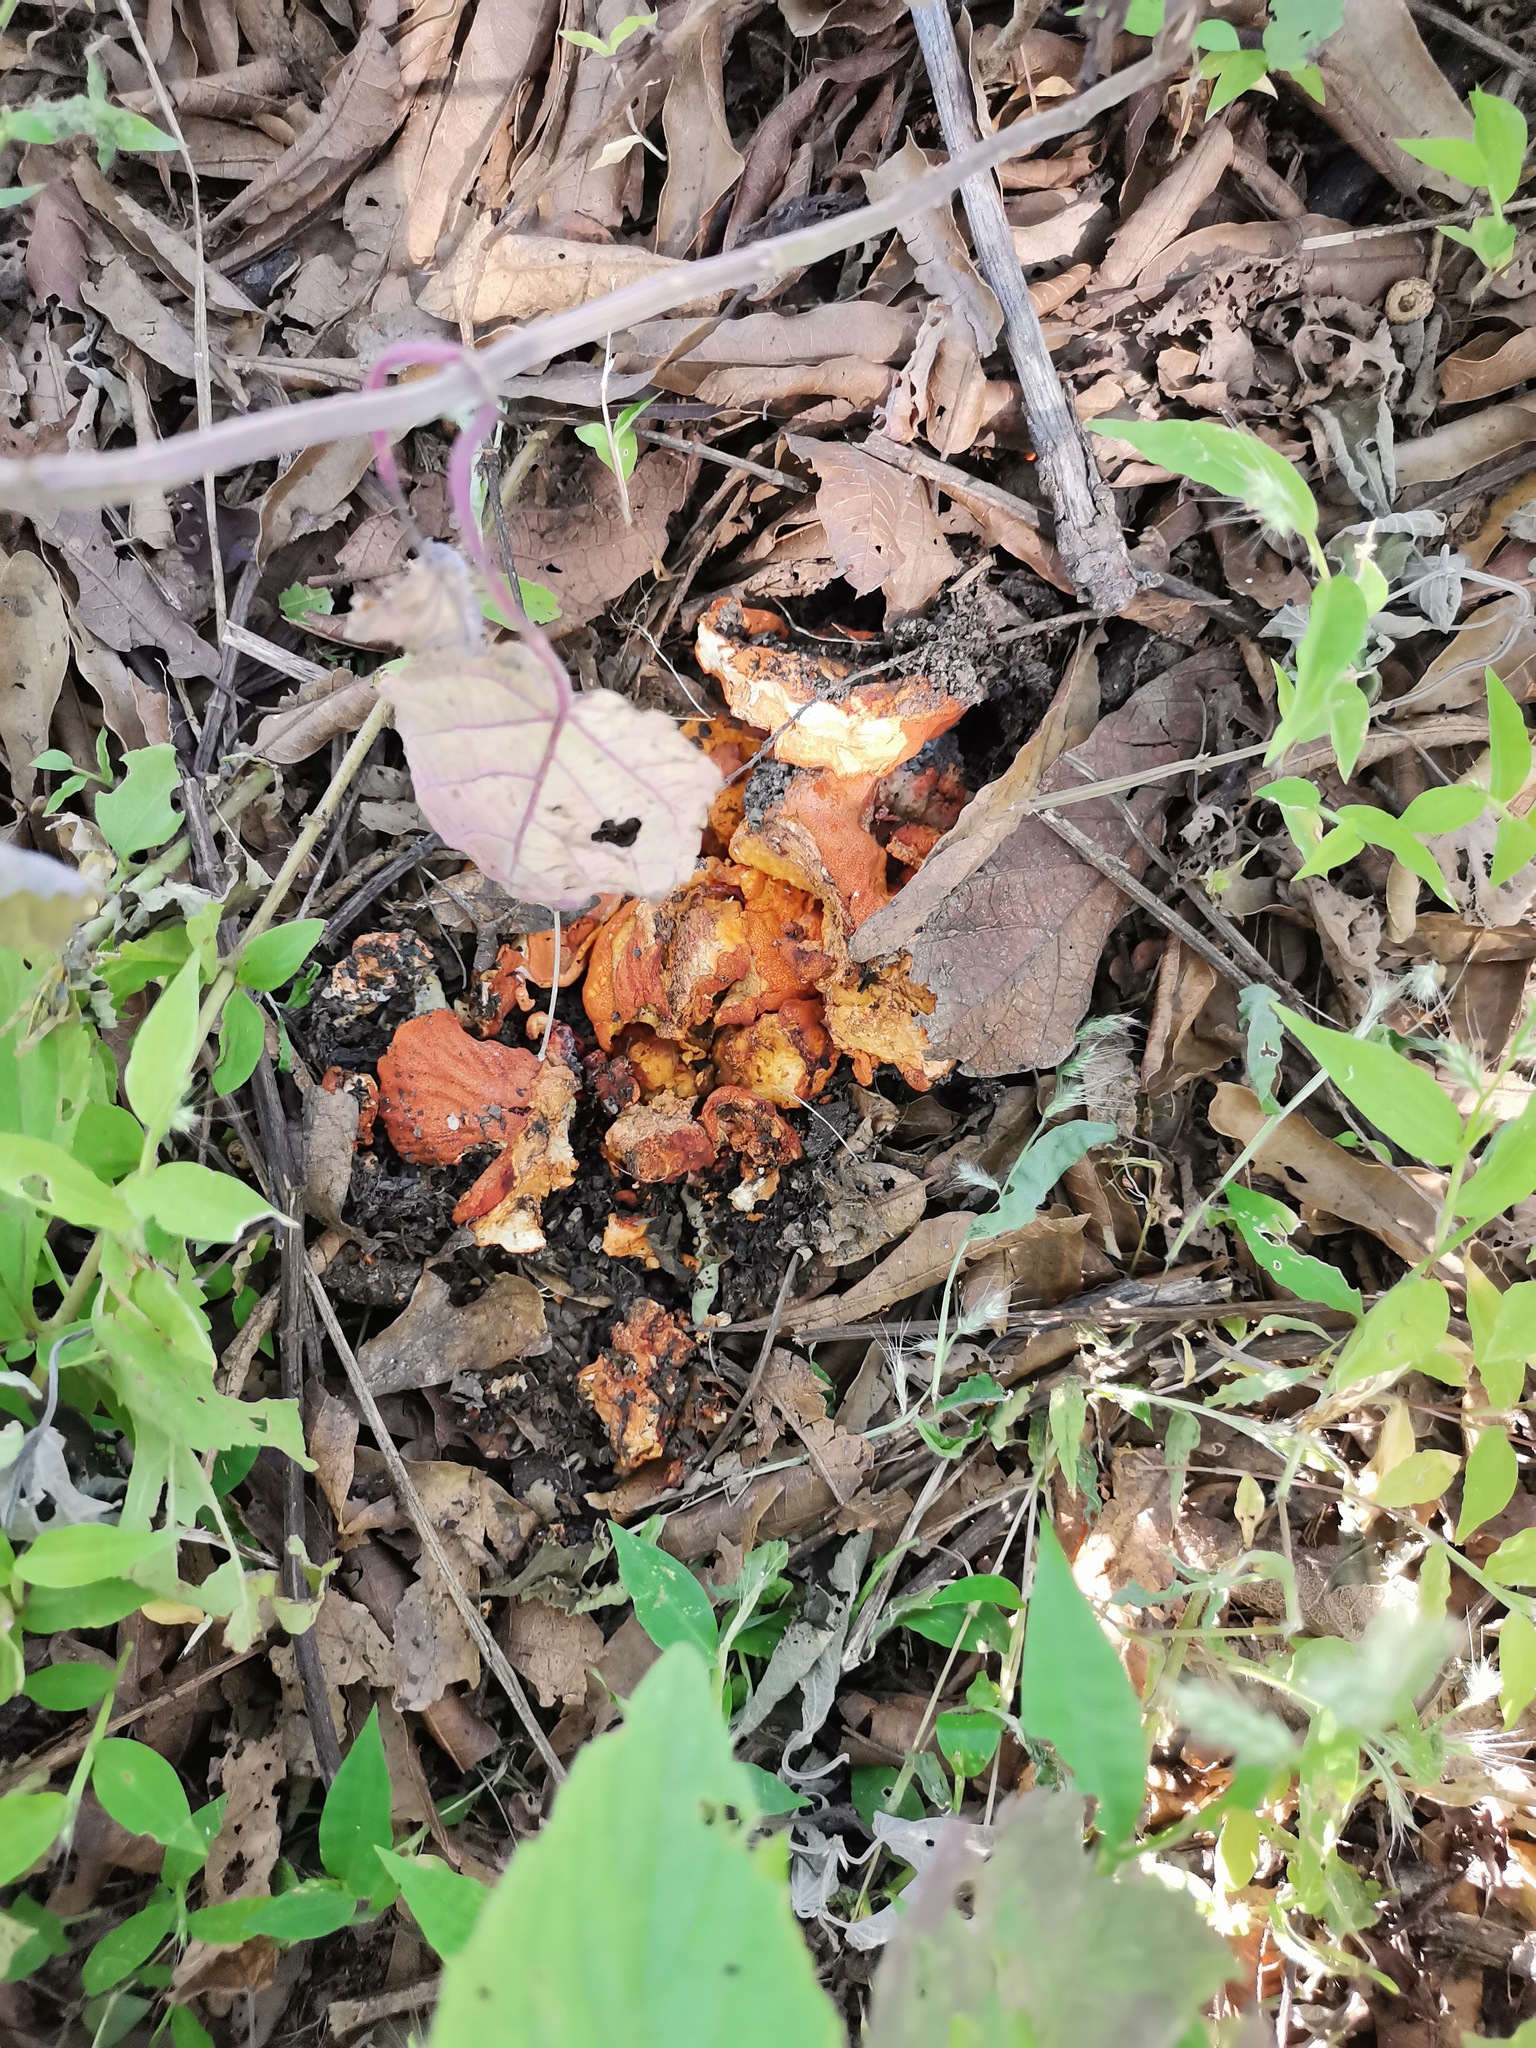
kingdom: Fungi
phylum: Ascomycota
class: Sordariomycetes
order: Hypocreales
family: Hypocreaceae
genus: Hypomyces
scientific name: Hypomyces lactifluorum
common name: Lobster mushroom
